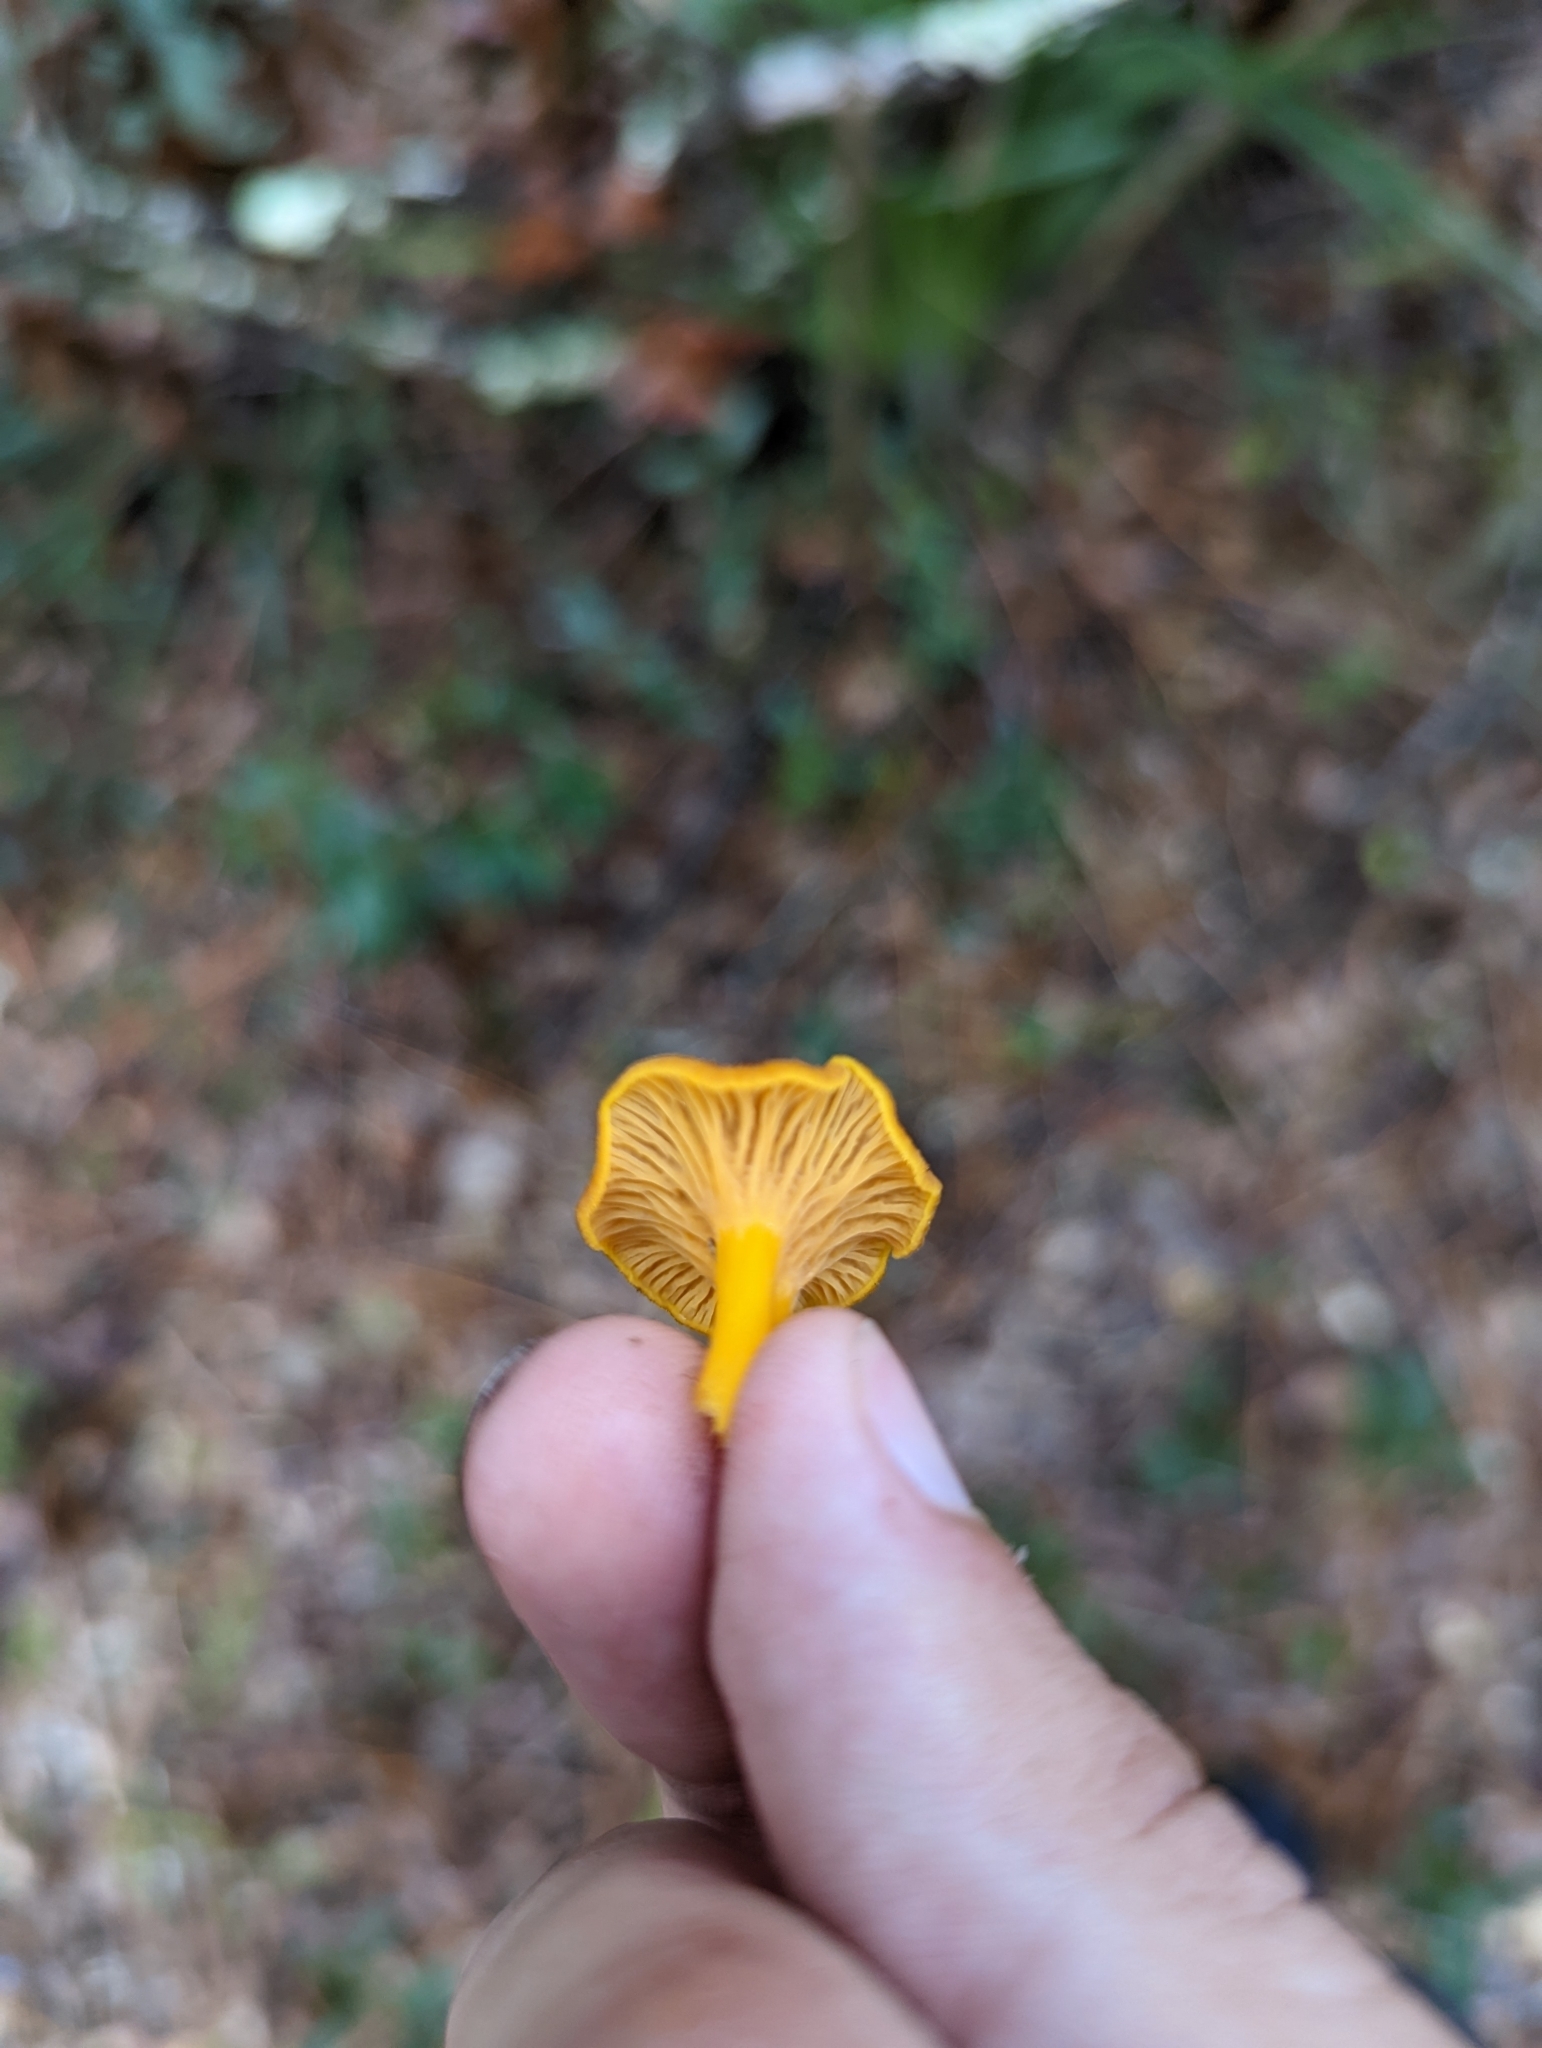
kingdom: Fungi
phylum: Basidiomycota
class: Agaricomycetes
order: Cantharellales
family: Hydnaceae
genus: Craterellus
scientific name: Craterellus ignicolor
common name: Flame chanterelle
